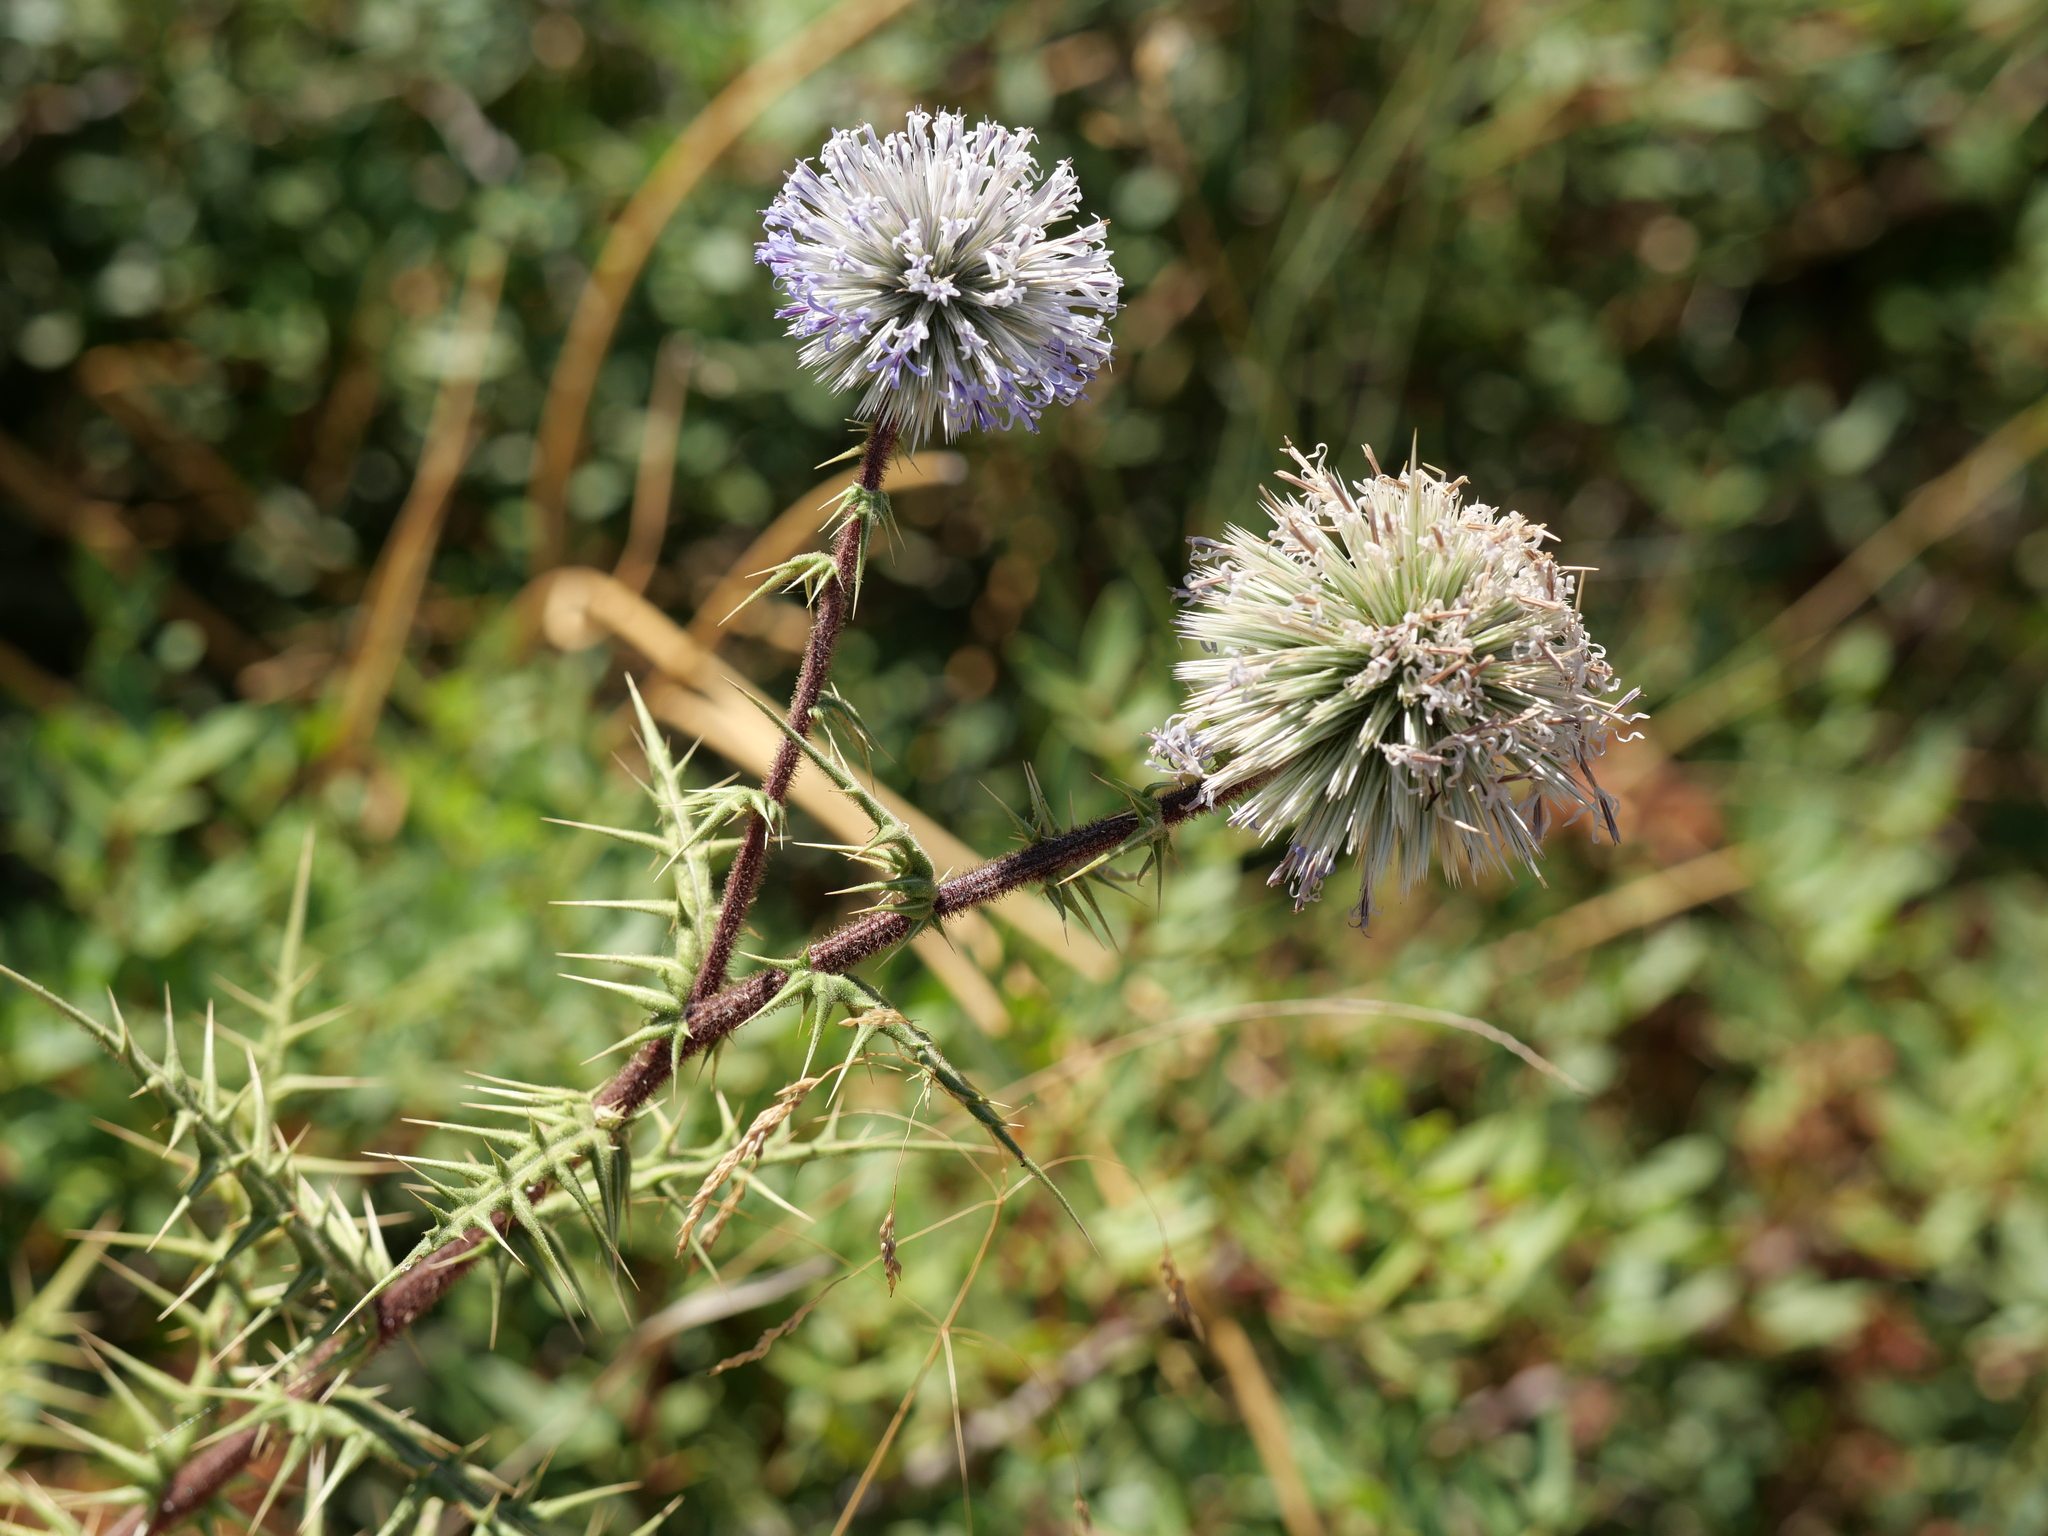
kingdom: Plantae
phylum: Tracheophyta
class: Magnoliopsida
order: Asterales
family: Asteraceae
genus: Echinops
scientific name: Echinops spinosissimus
